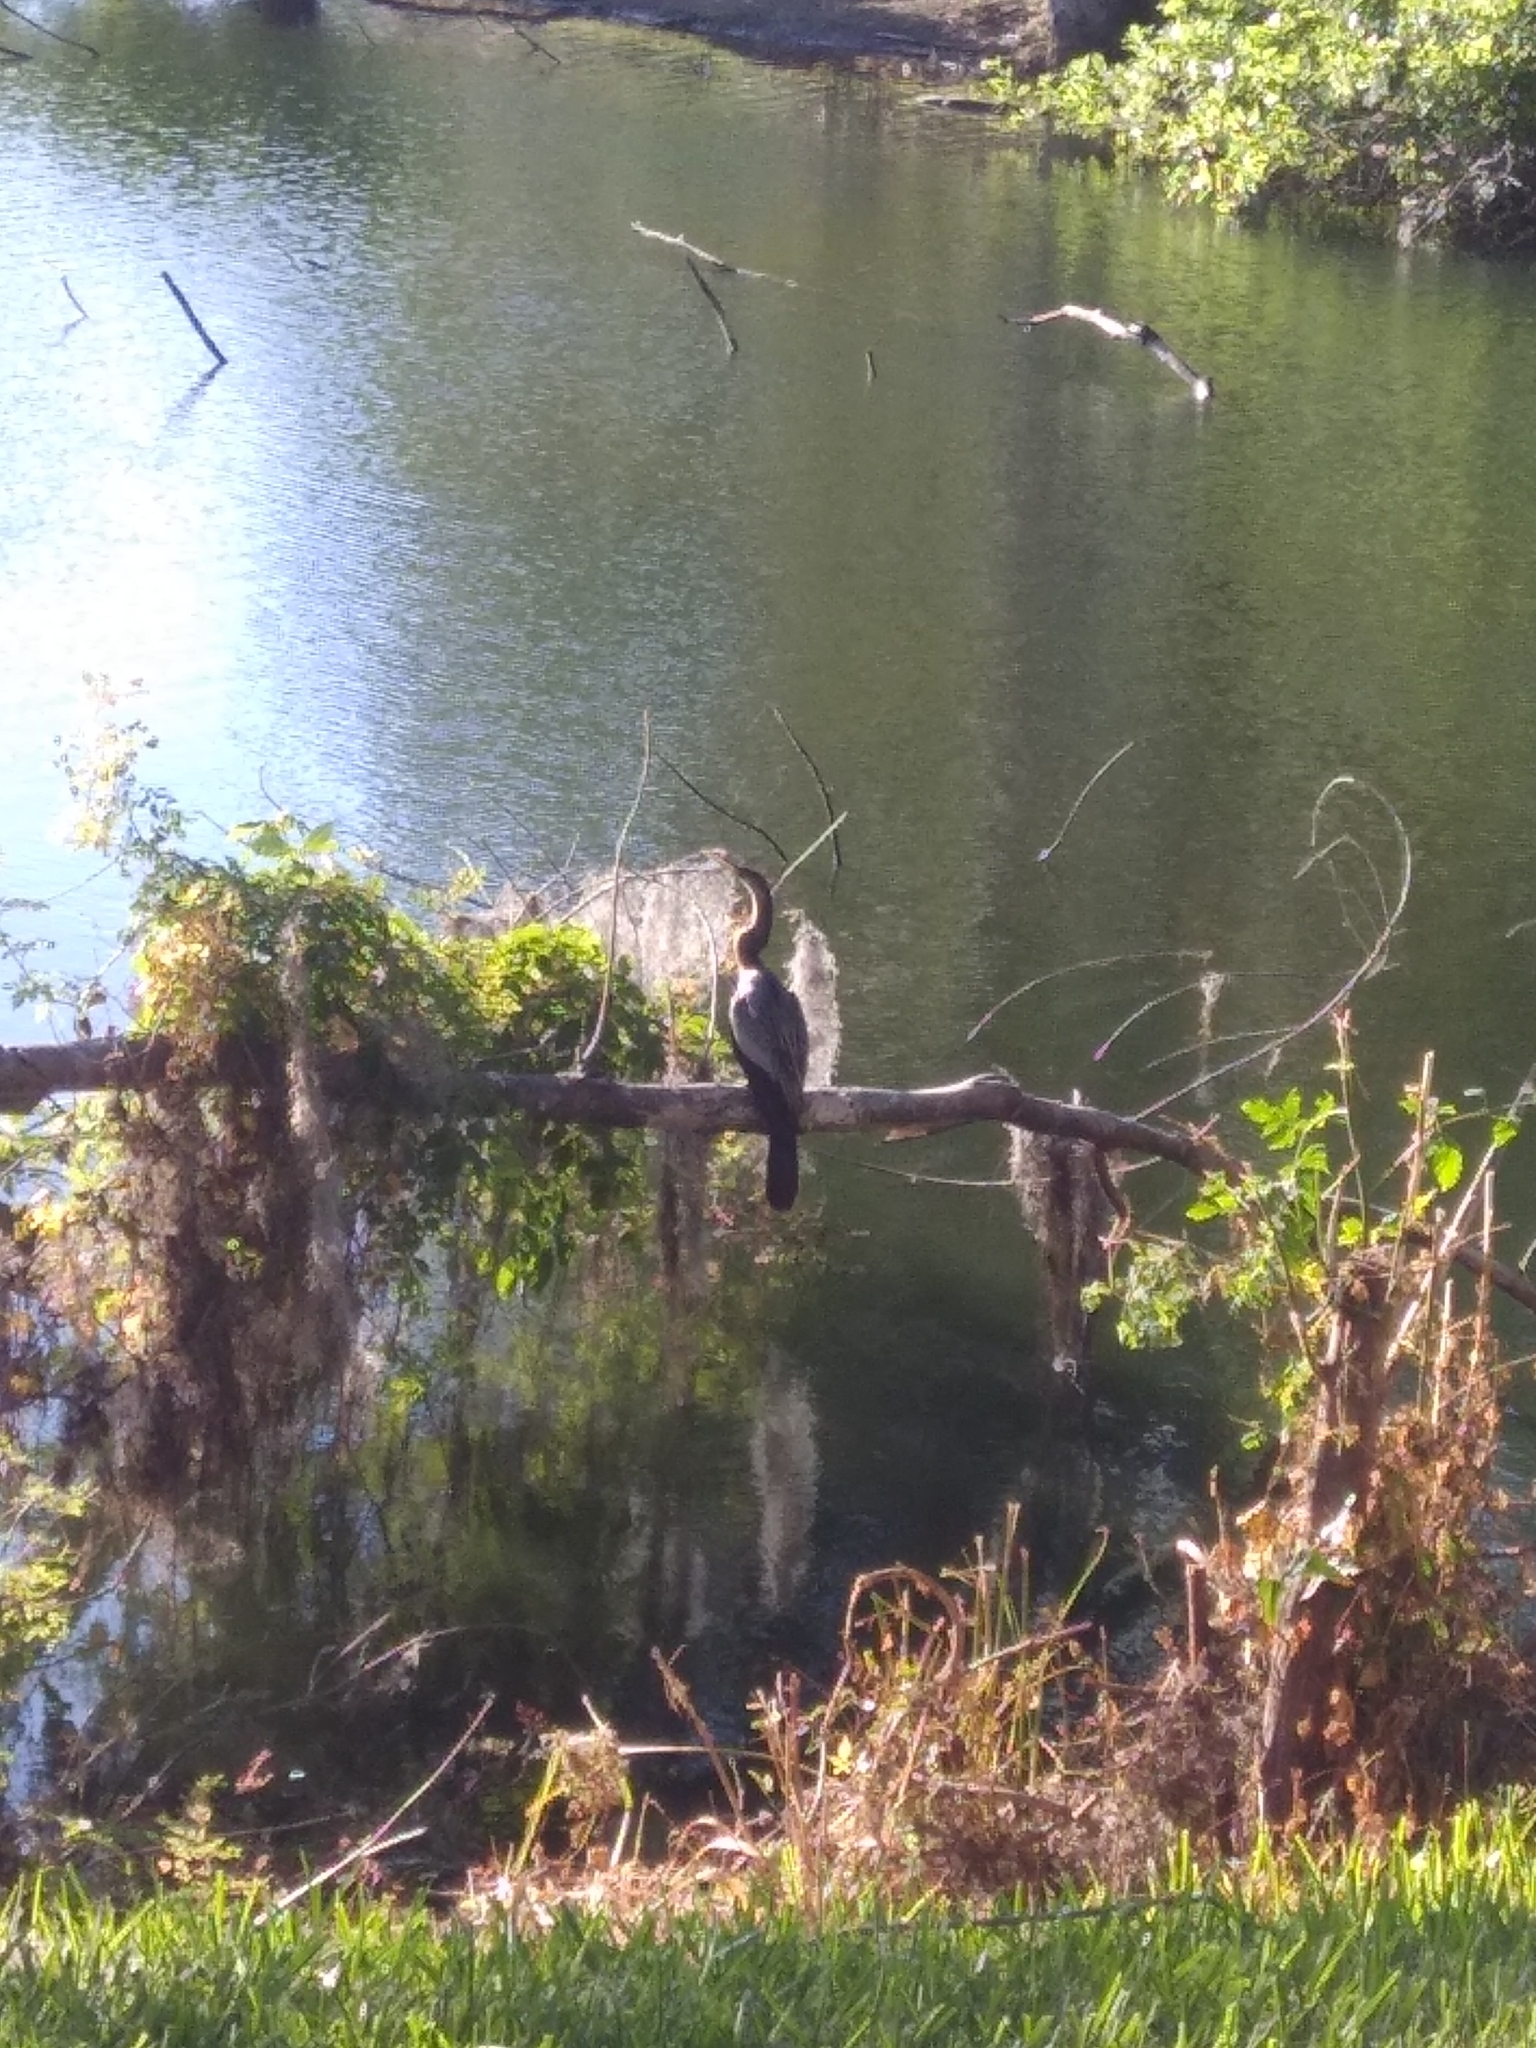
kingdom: Animalia
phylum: Chordata
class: Aves
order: Suliformes
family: Anhingidae
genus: Anhinga
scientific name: Anhinga anhinga
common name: Anhinga
